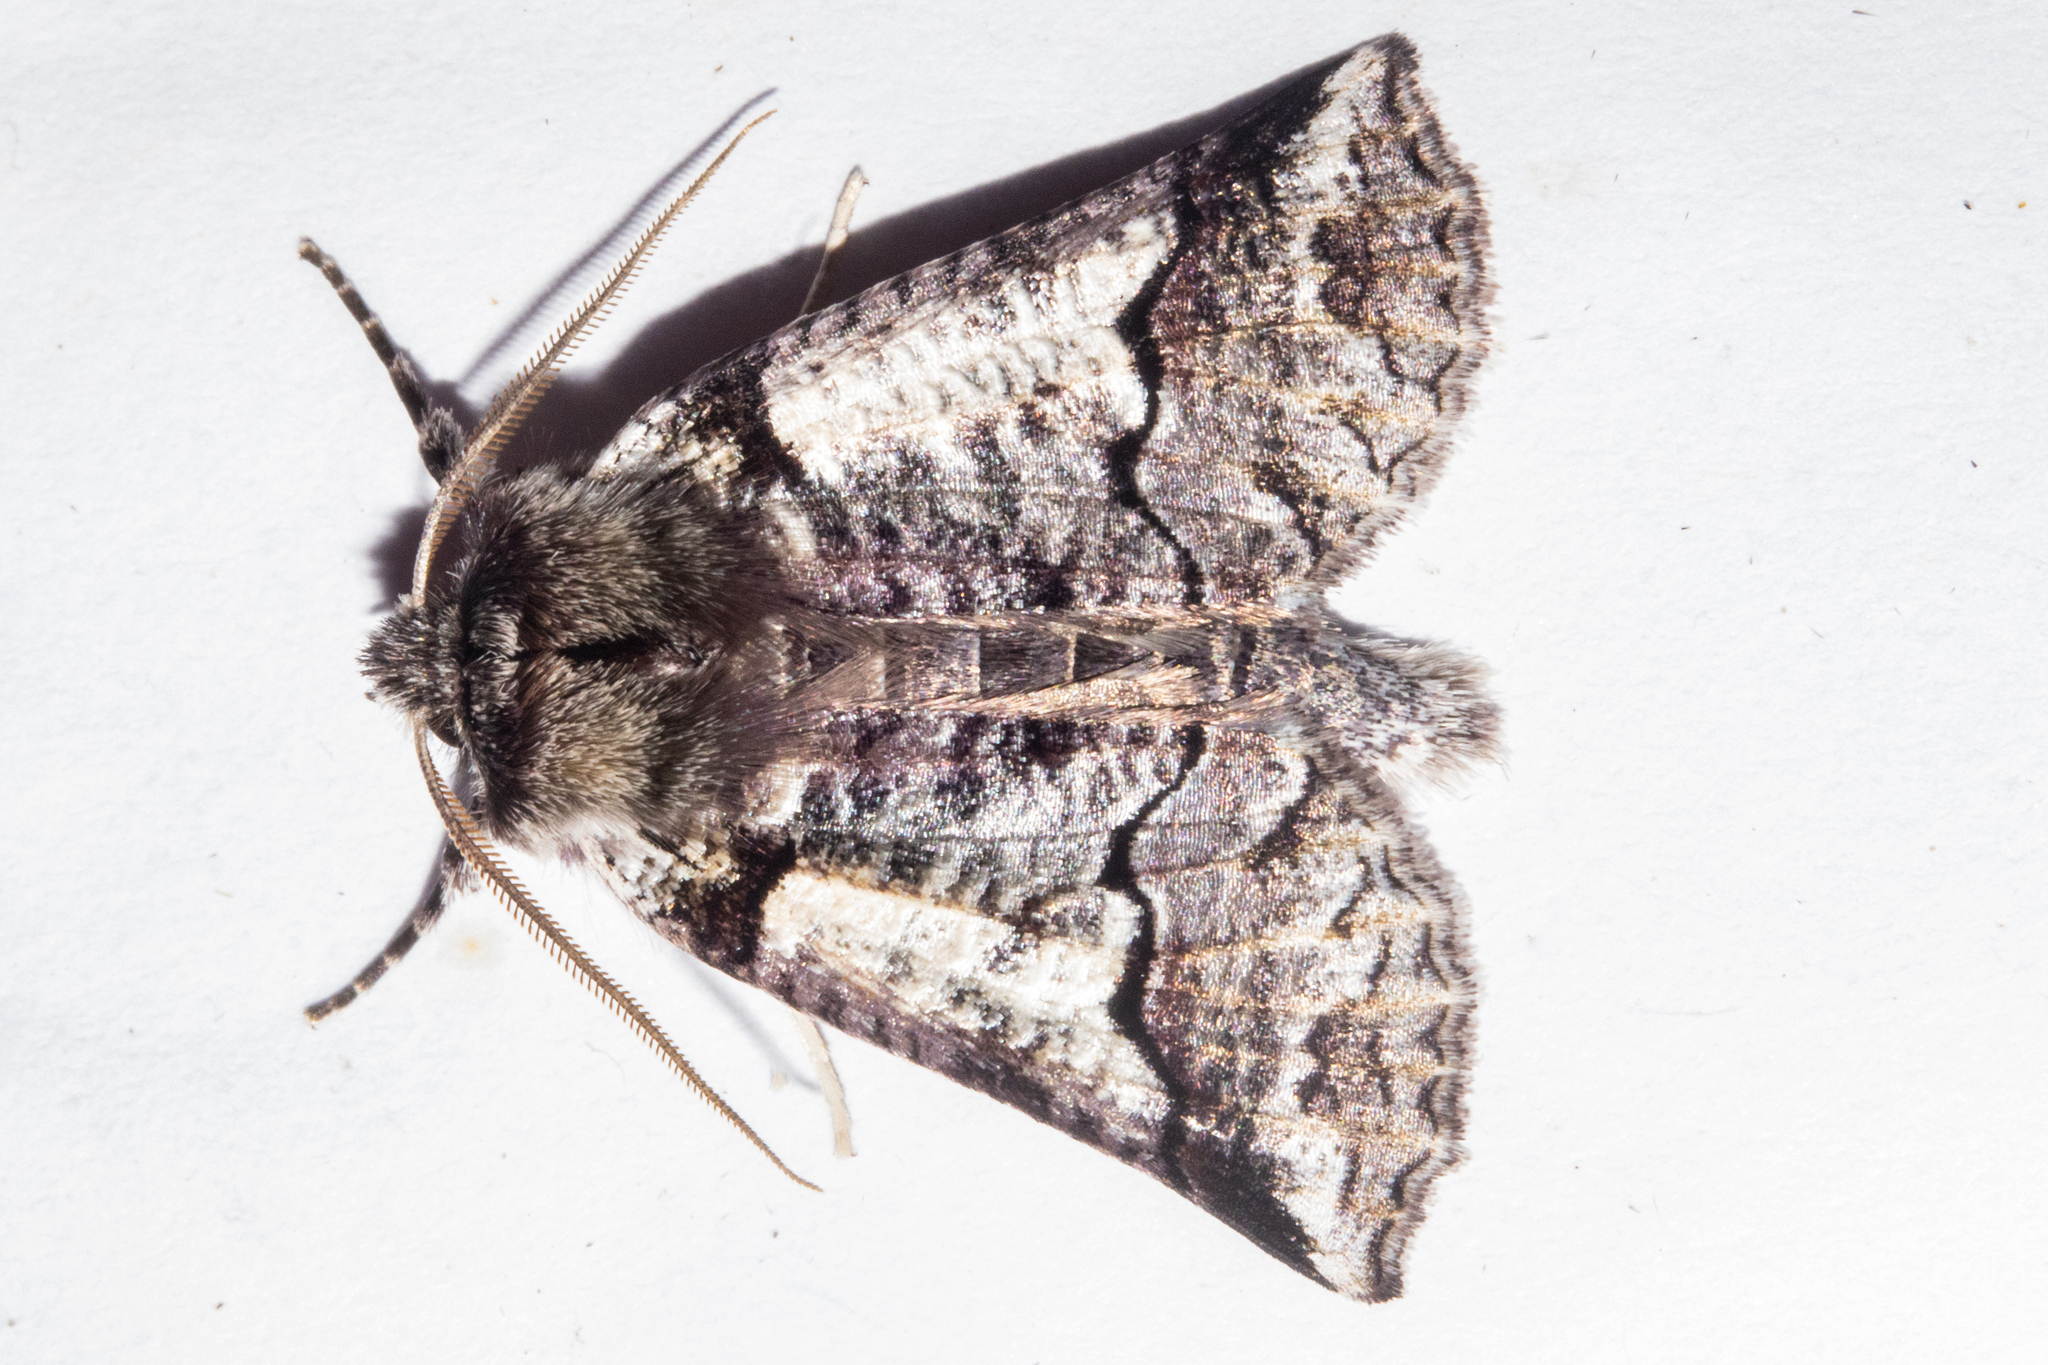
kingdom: Animalia
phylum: Arthropoda
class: Insecta
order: Lepidoptera
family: Geometridae
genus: Declana
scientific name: Declana
